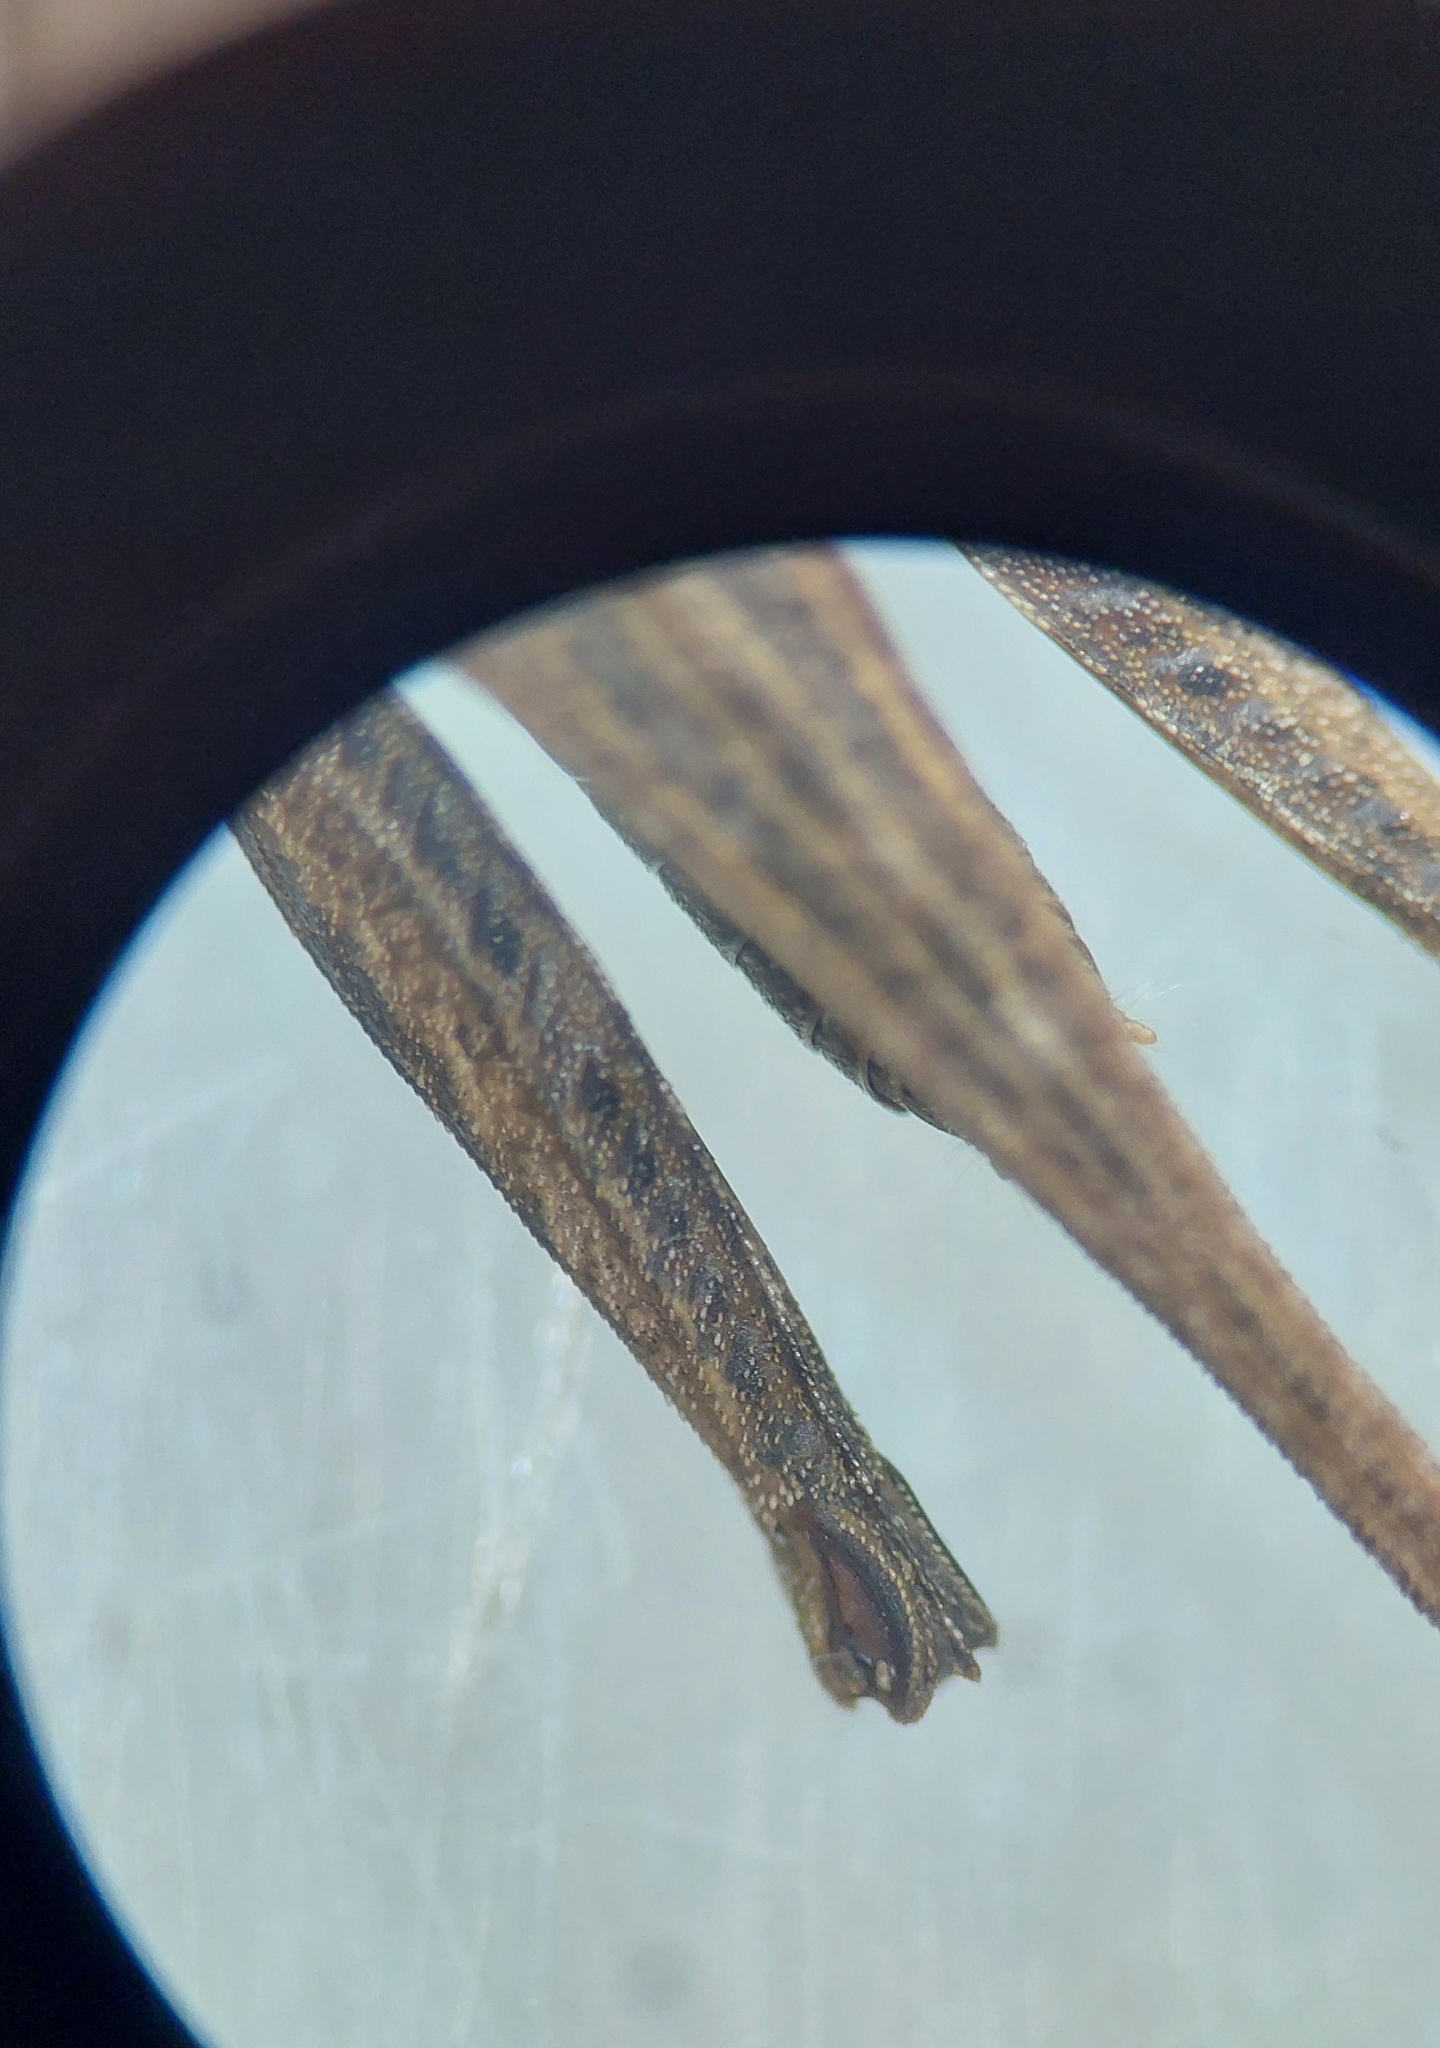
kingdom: Animalia
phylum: Arthropoda
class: Insecta
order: Orthoptera
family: Tetrigidae
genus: Tetrix
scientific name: Tetrix subulata
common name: Slender ground-hopper
